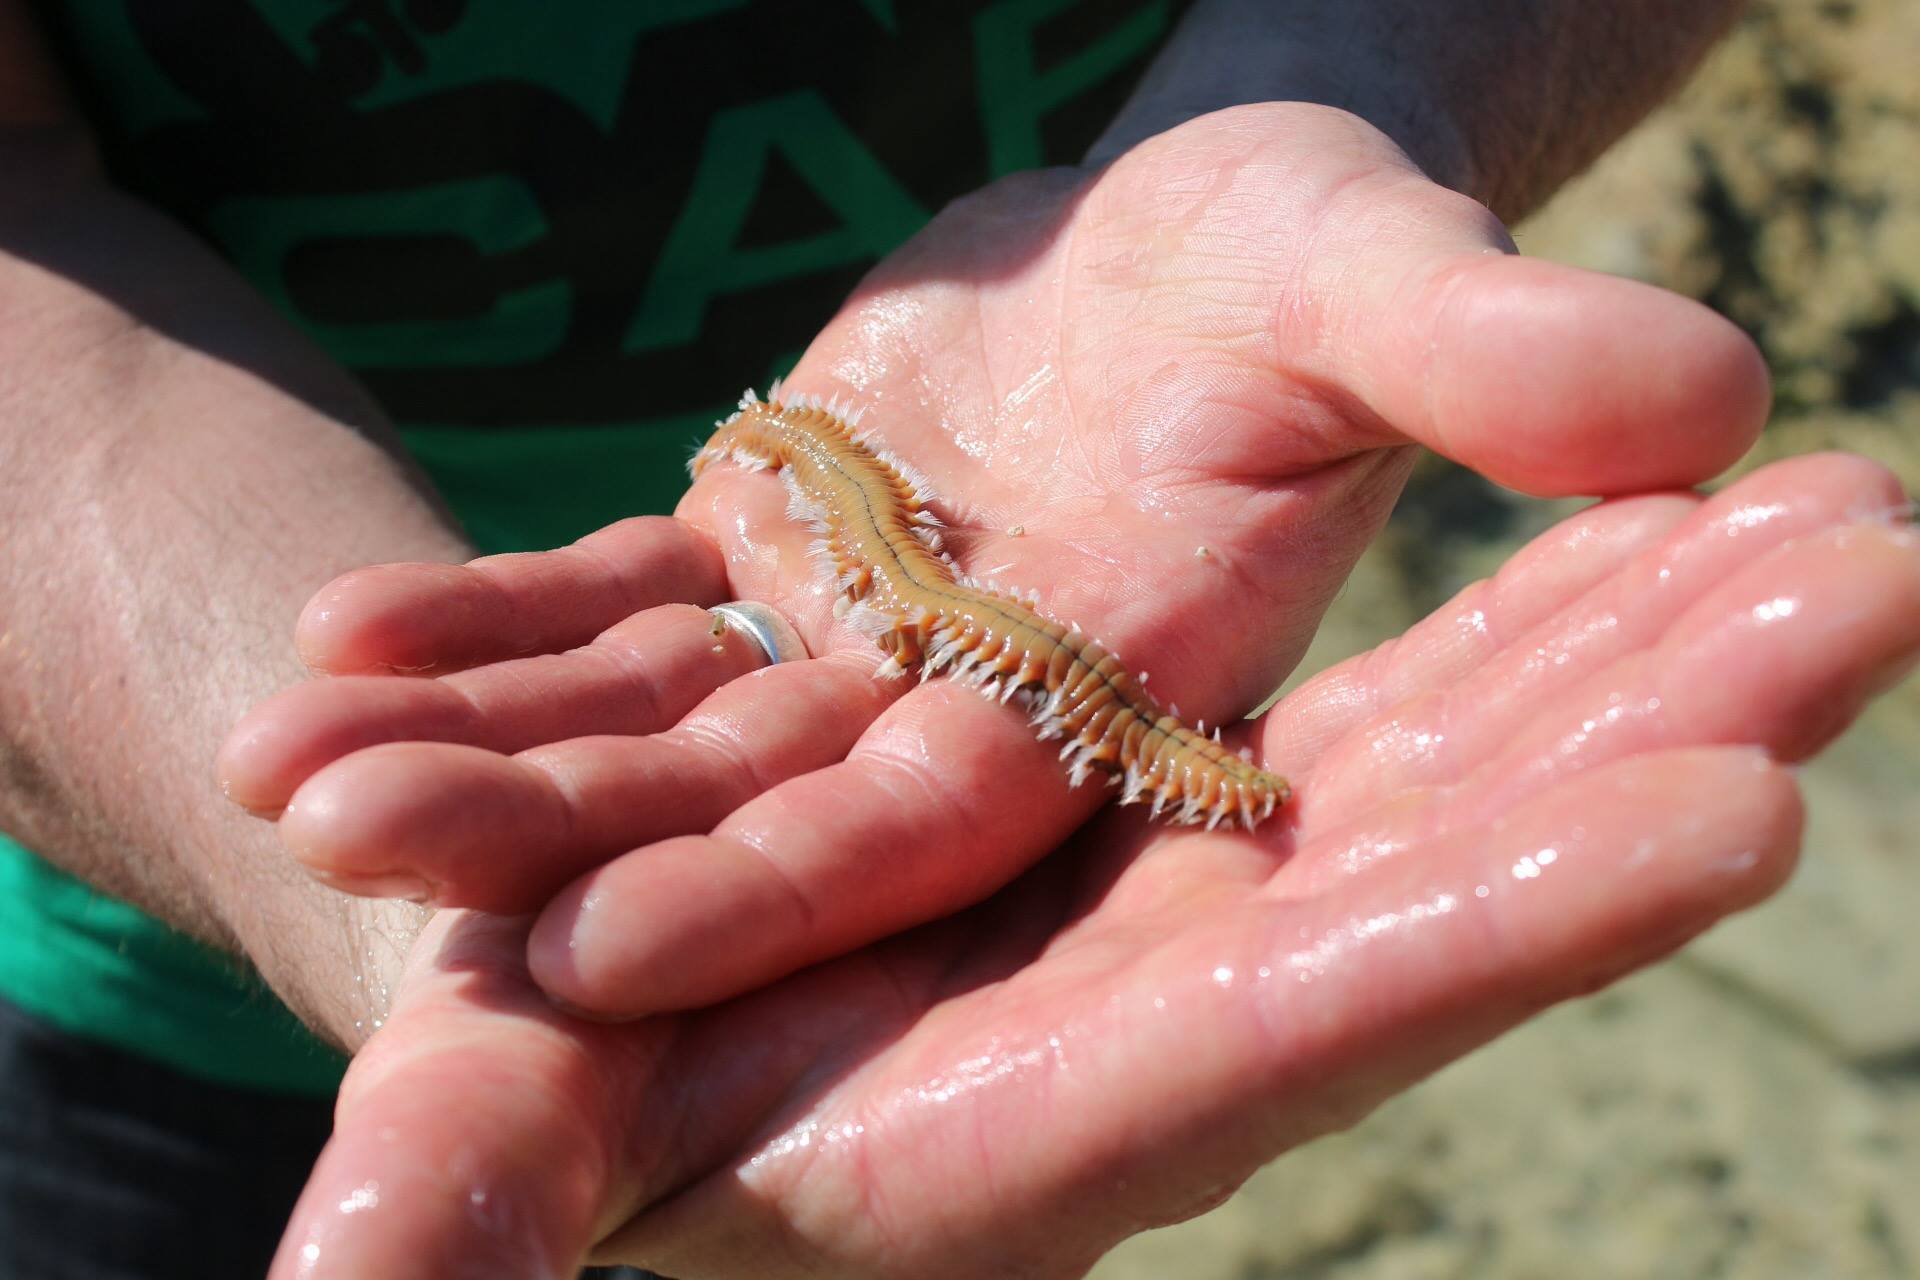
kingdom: Animalia
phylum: Annelida
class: Polychaeta
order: Amphinomida
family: Amphinomidae
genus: Hermodice
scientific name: Hermodice carunculata
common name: Bearded fireworm
